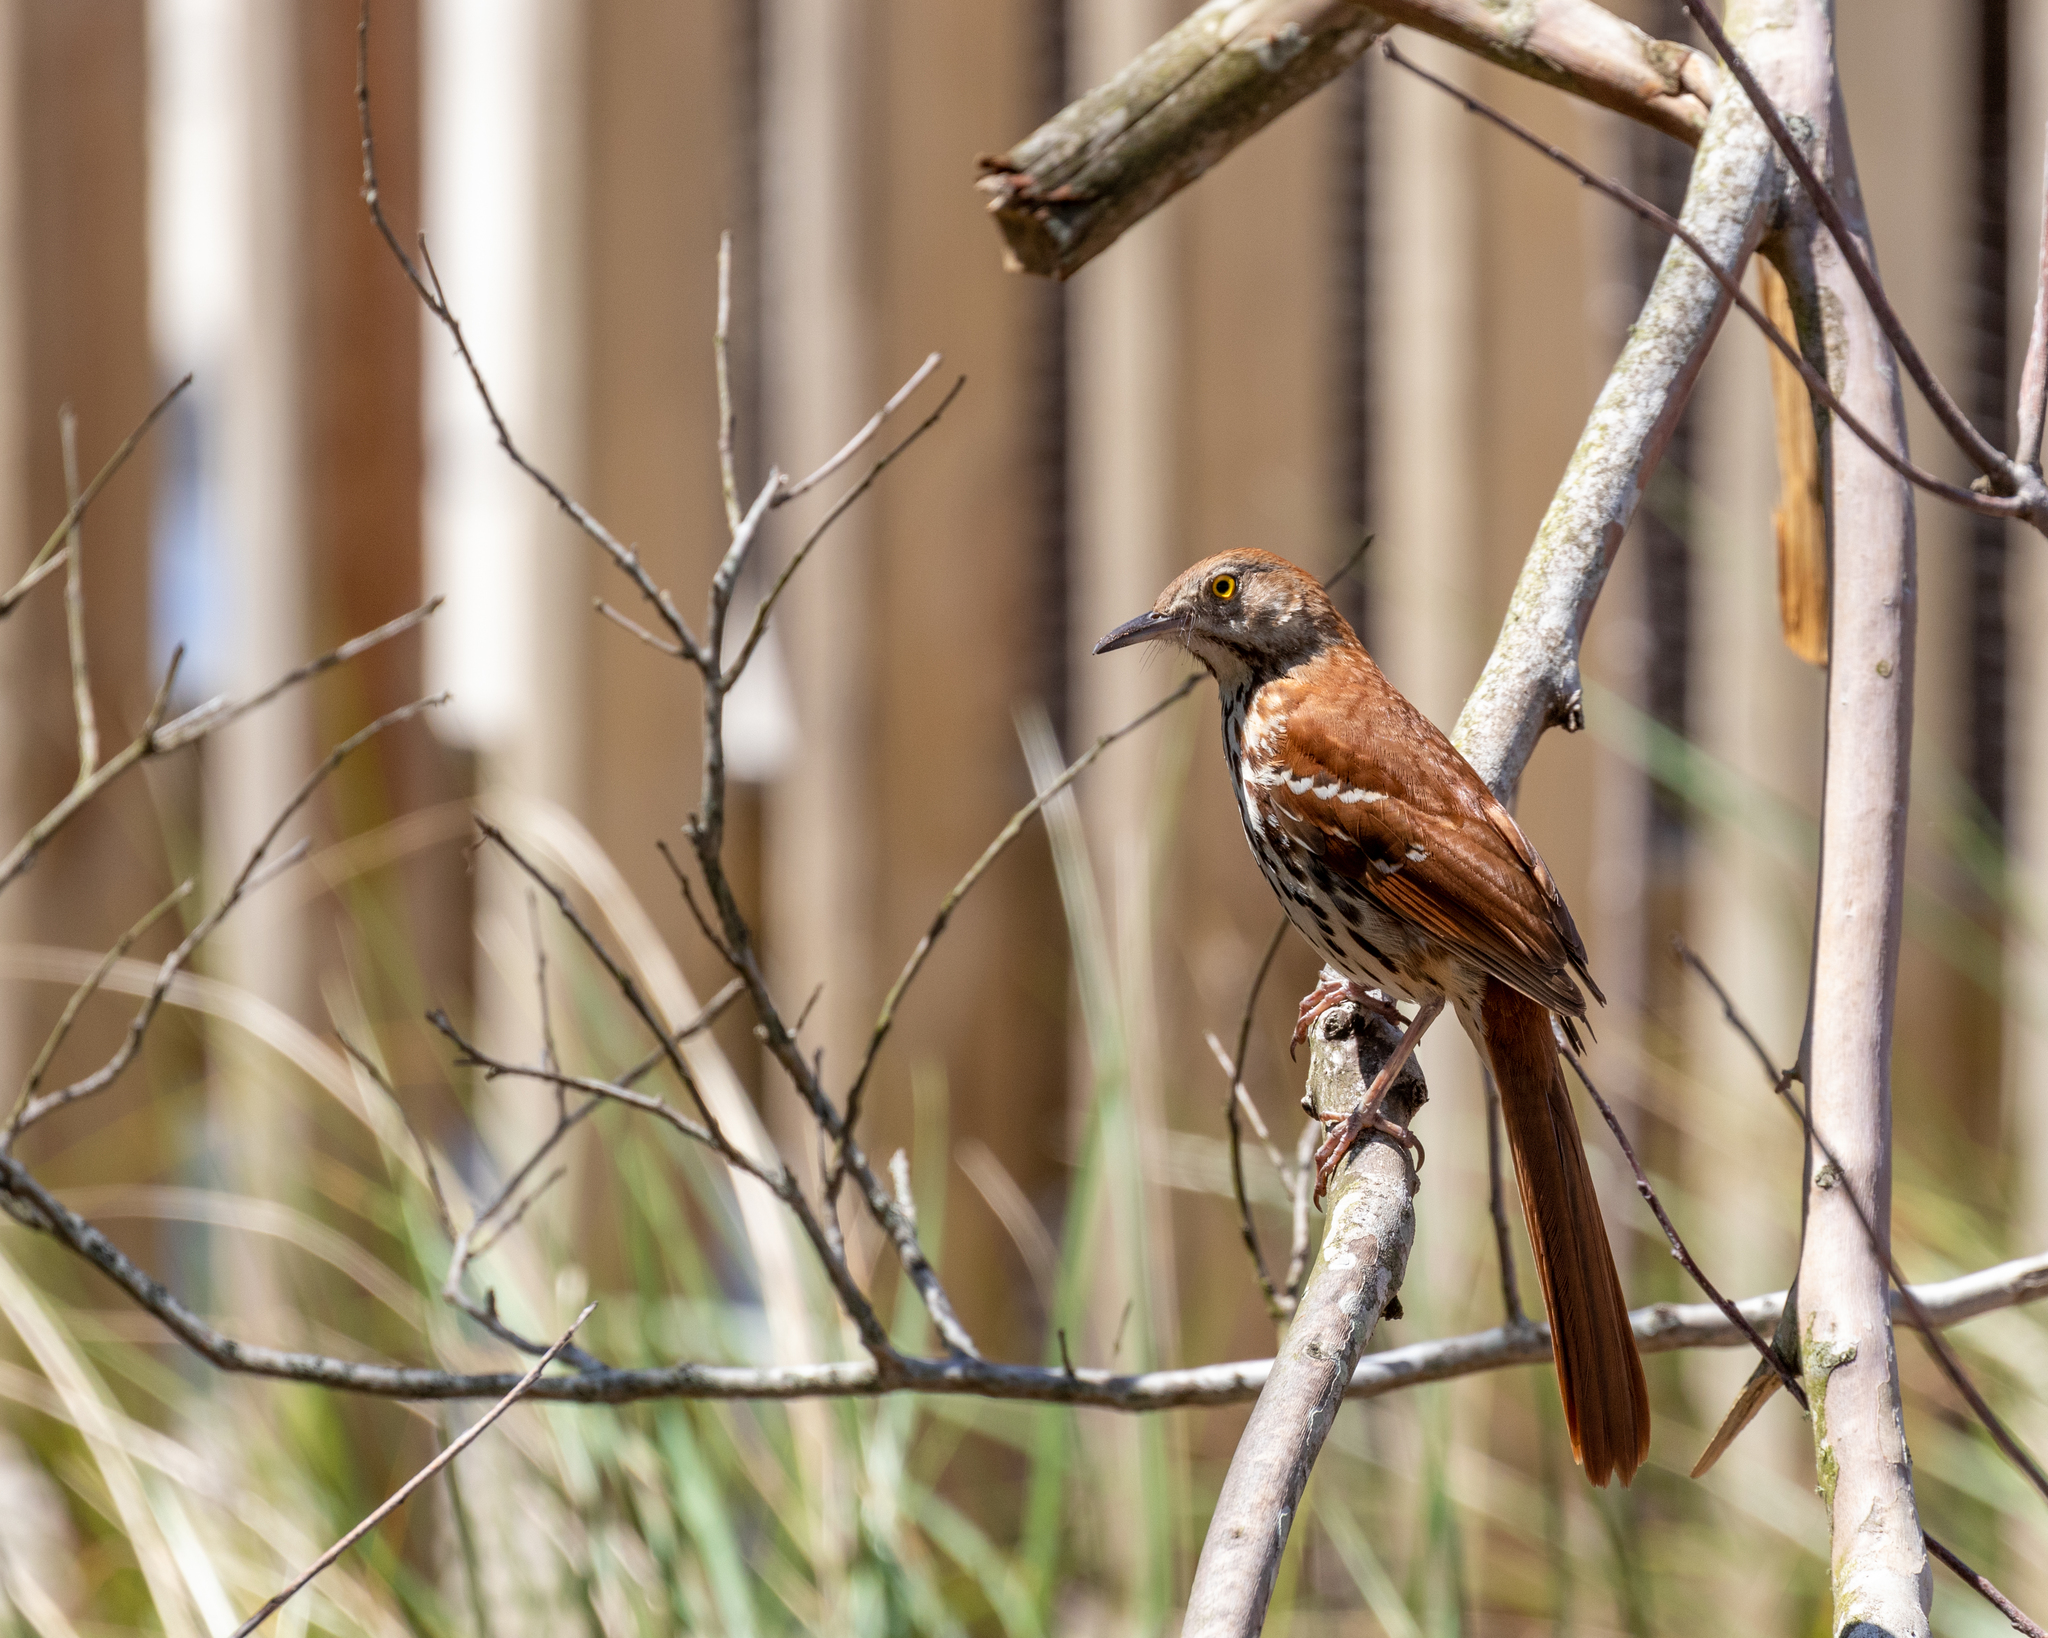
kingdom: Animalia
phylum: Chordata
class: Aves
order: Passeriformes
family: Mimidae
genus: Toxostoma
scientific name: Toxostoma rufum
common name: Brown thrasher
